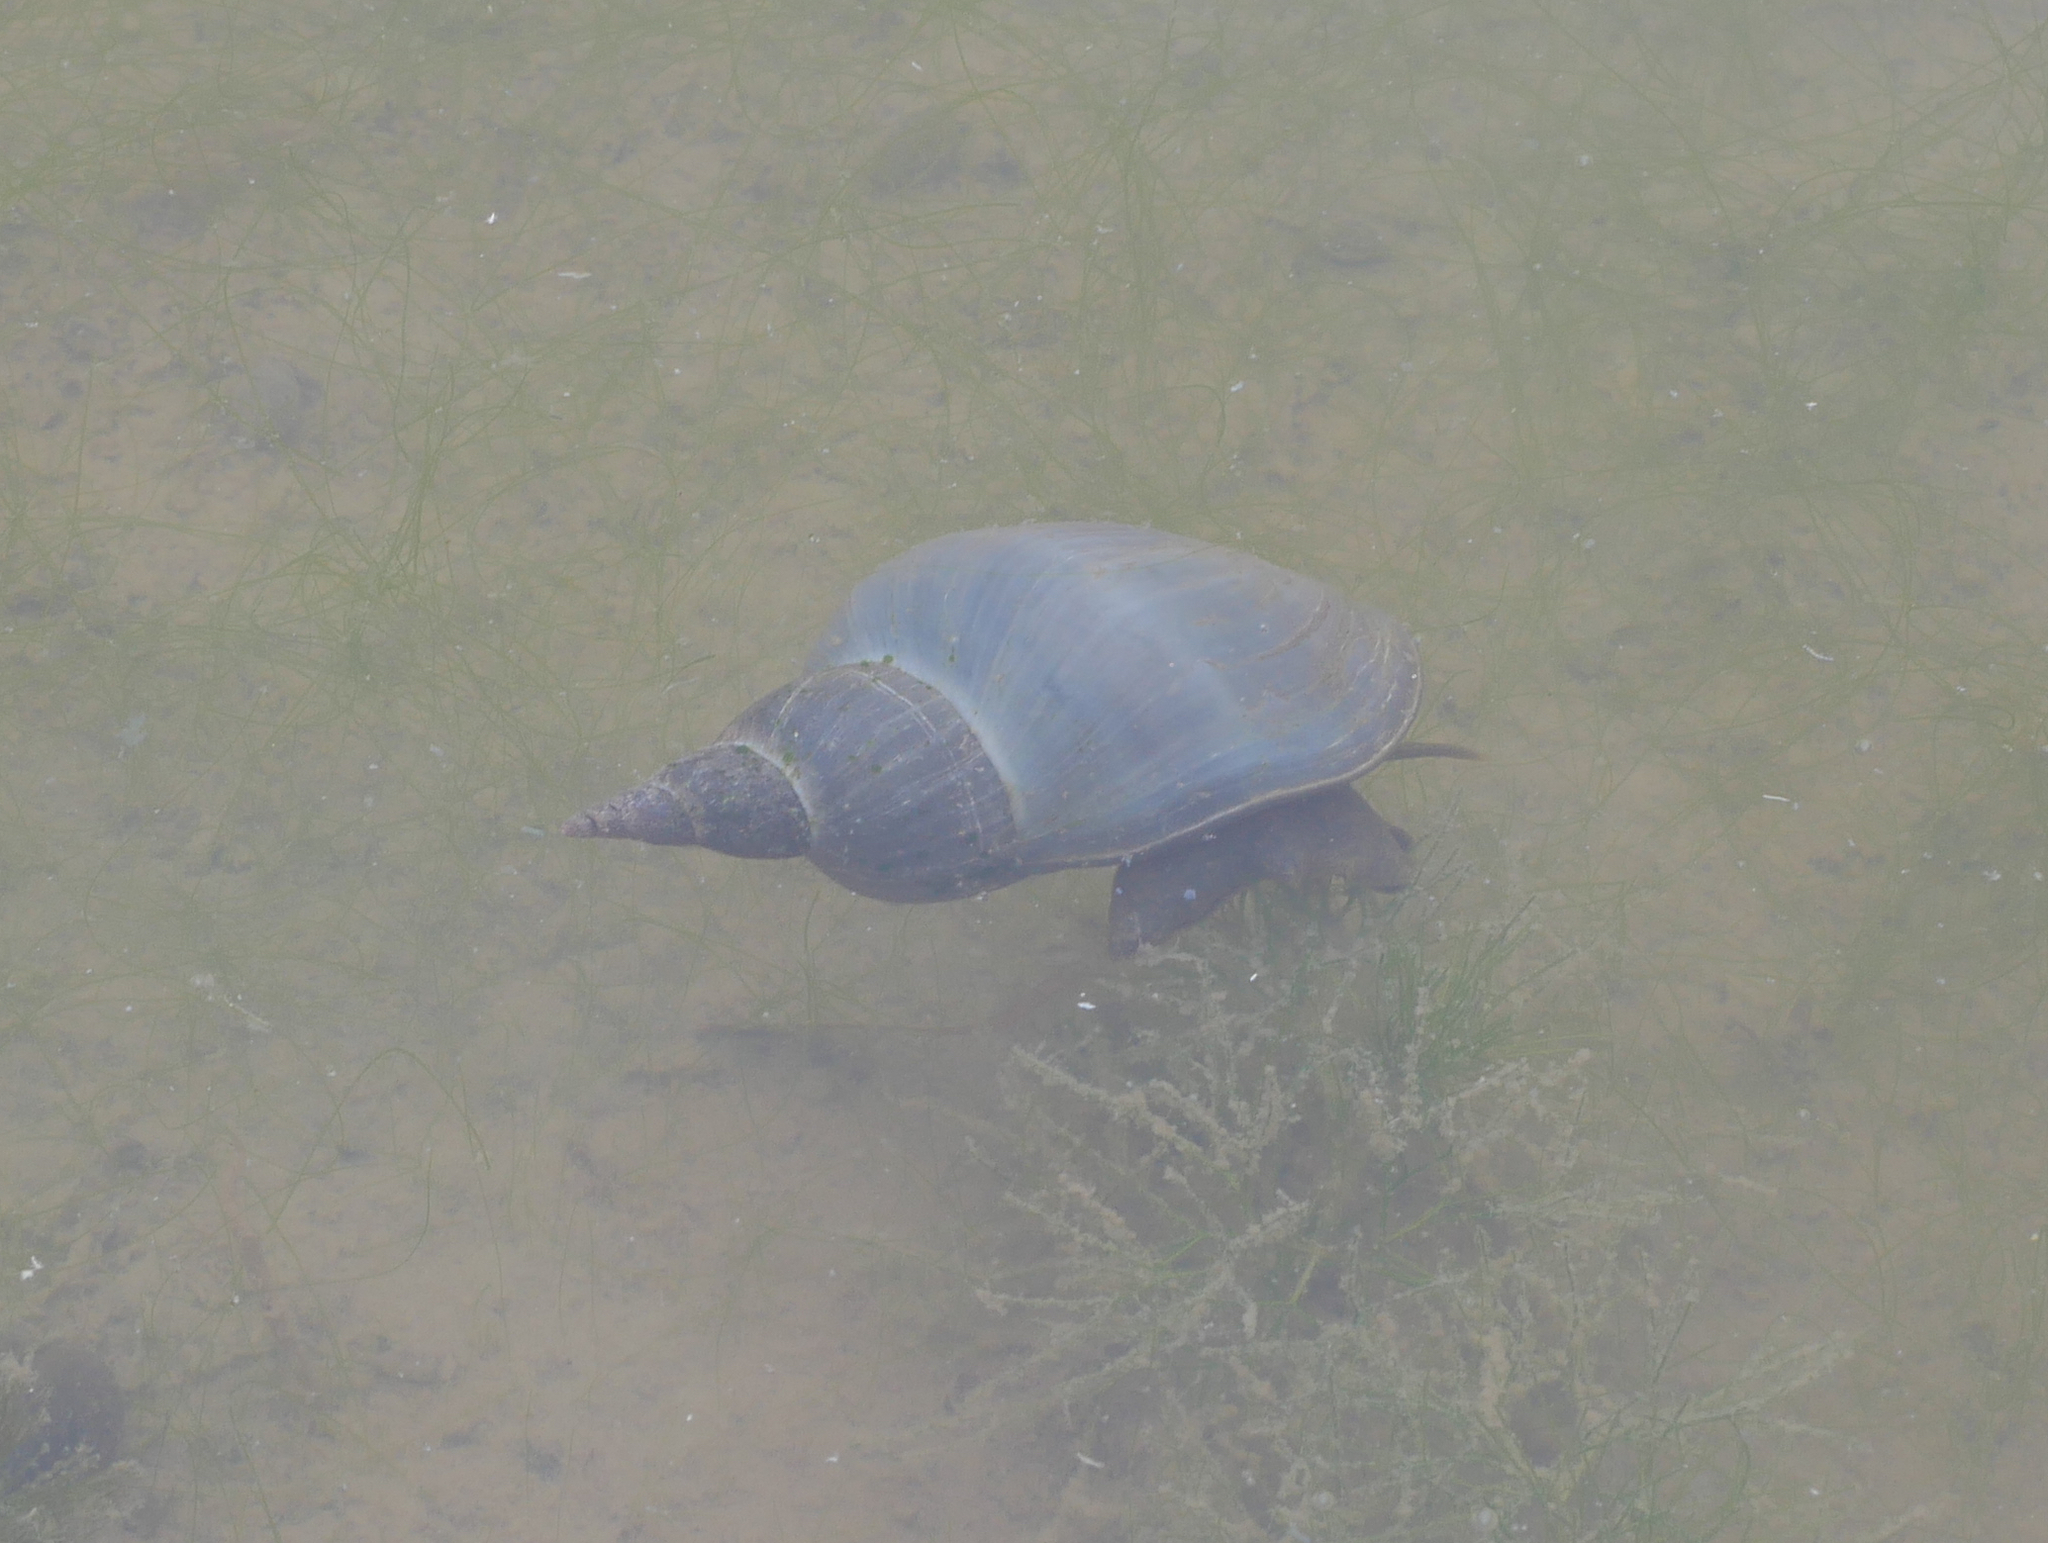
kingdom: Animalia
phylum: Mollusca
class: Gastropoda
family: Lymnaeidae
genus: Lymnaea
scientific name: Lymnaea stagnalis
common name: Great pond snail
